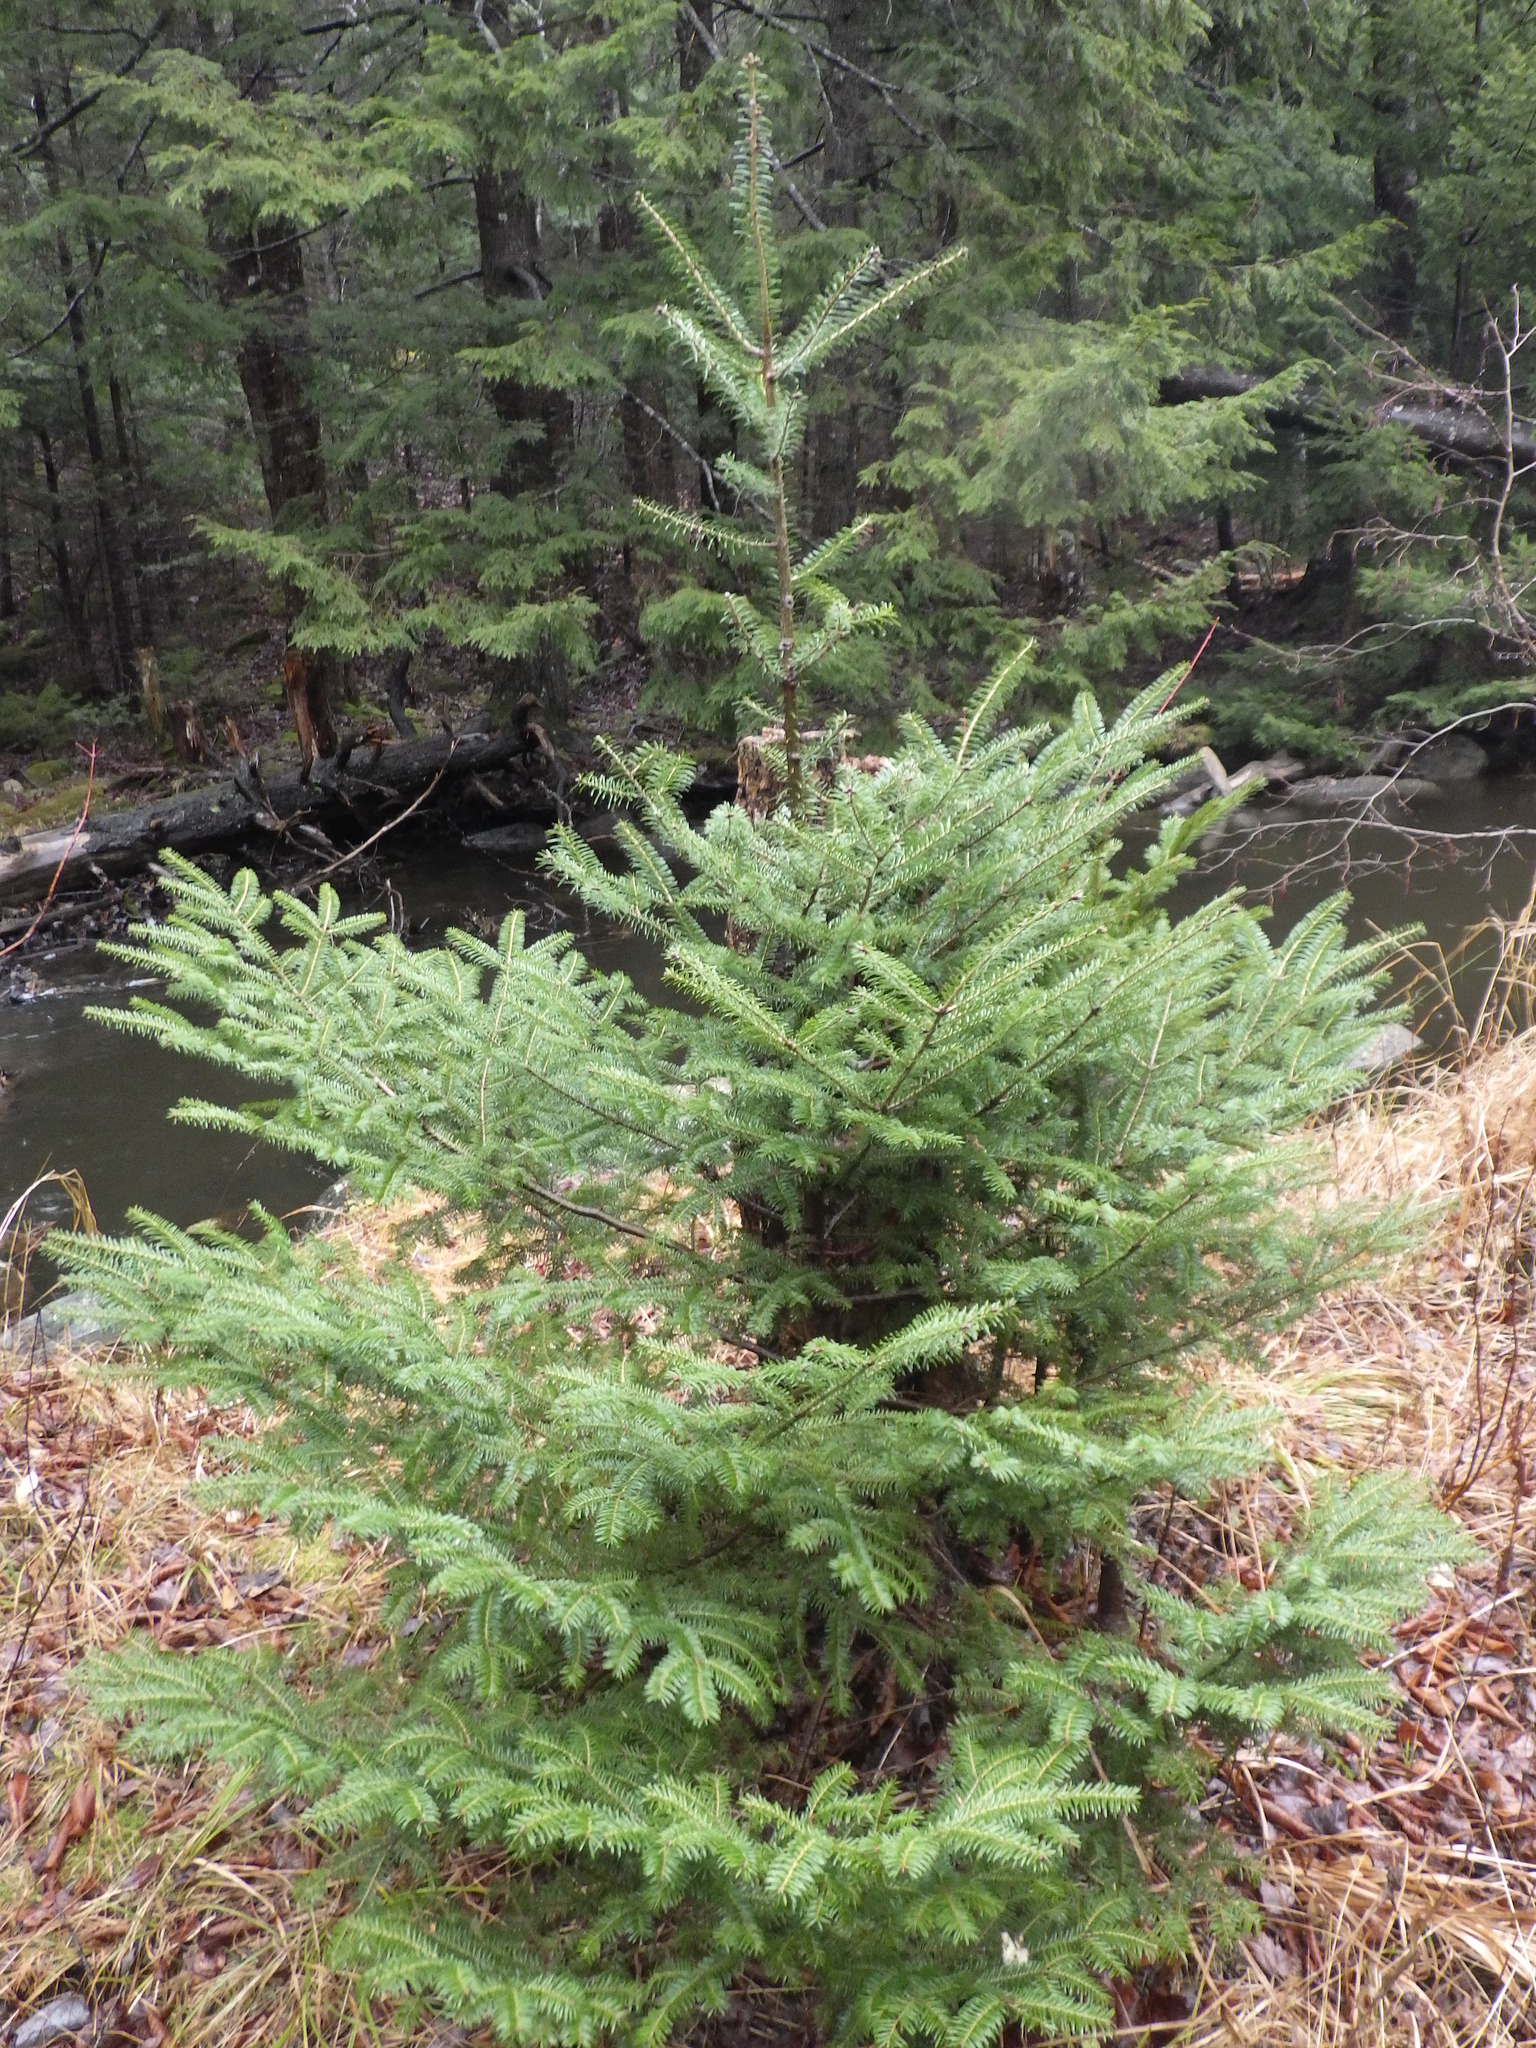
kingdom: Plantae
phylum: Tracheophyta
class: Pinopsida
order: Pinales
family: Pinaceae
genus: Abies
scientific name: Abies balsamea
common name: Balsam fir
